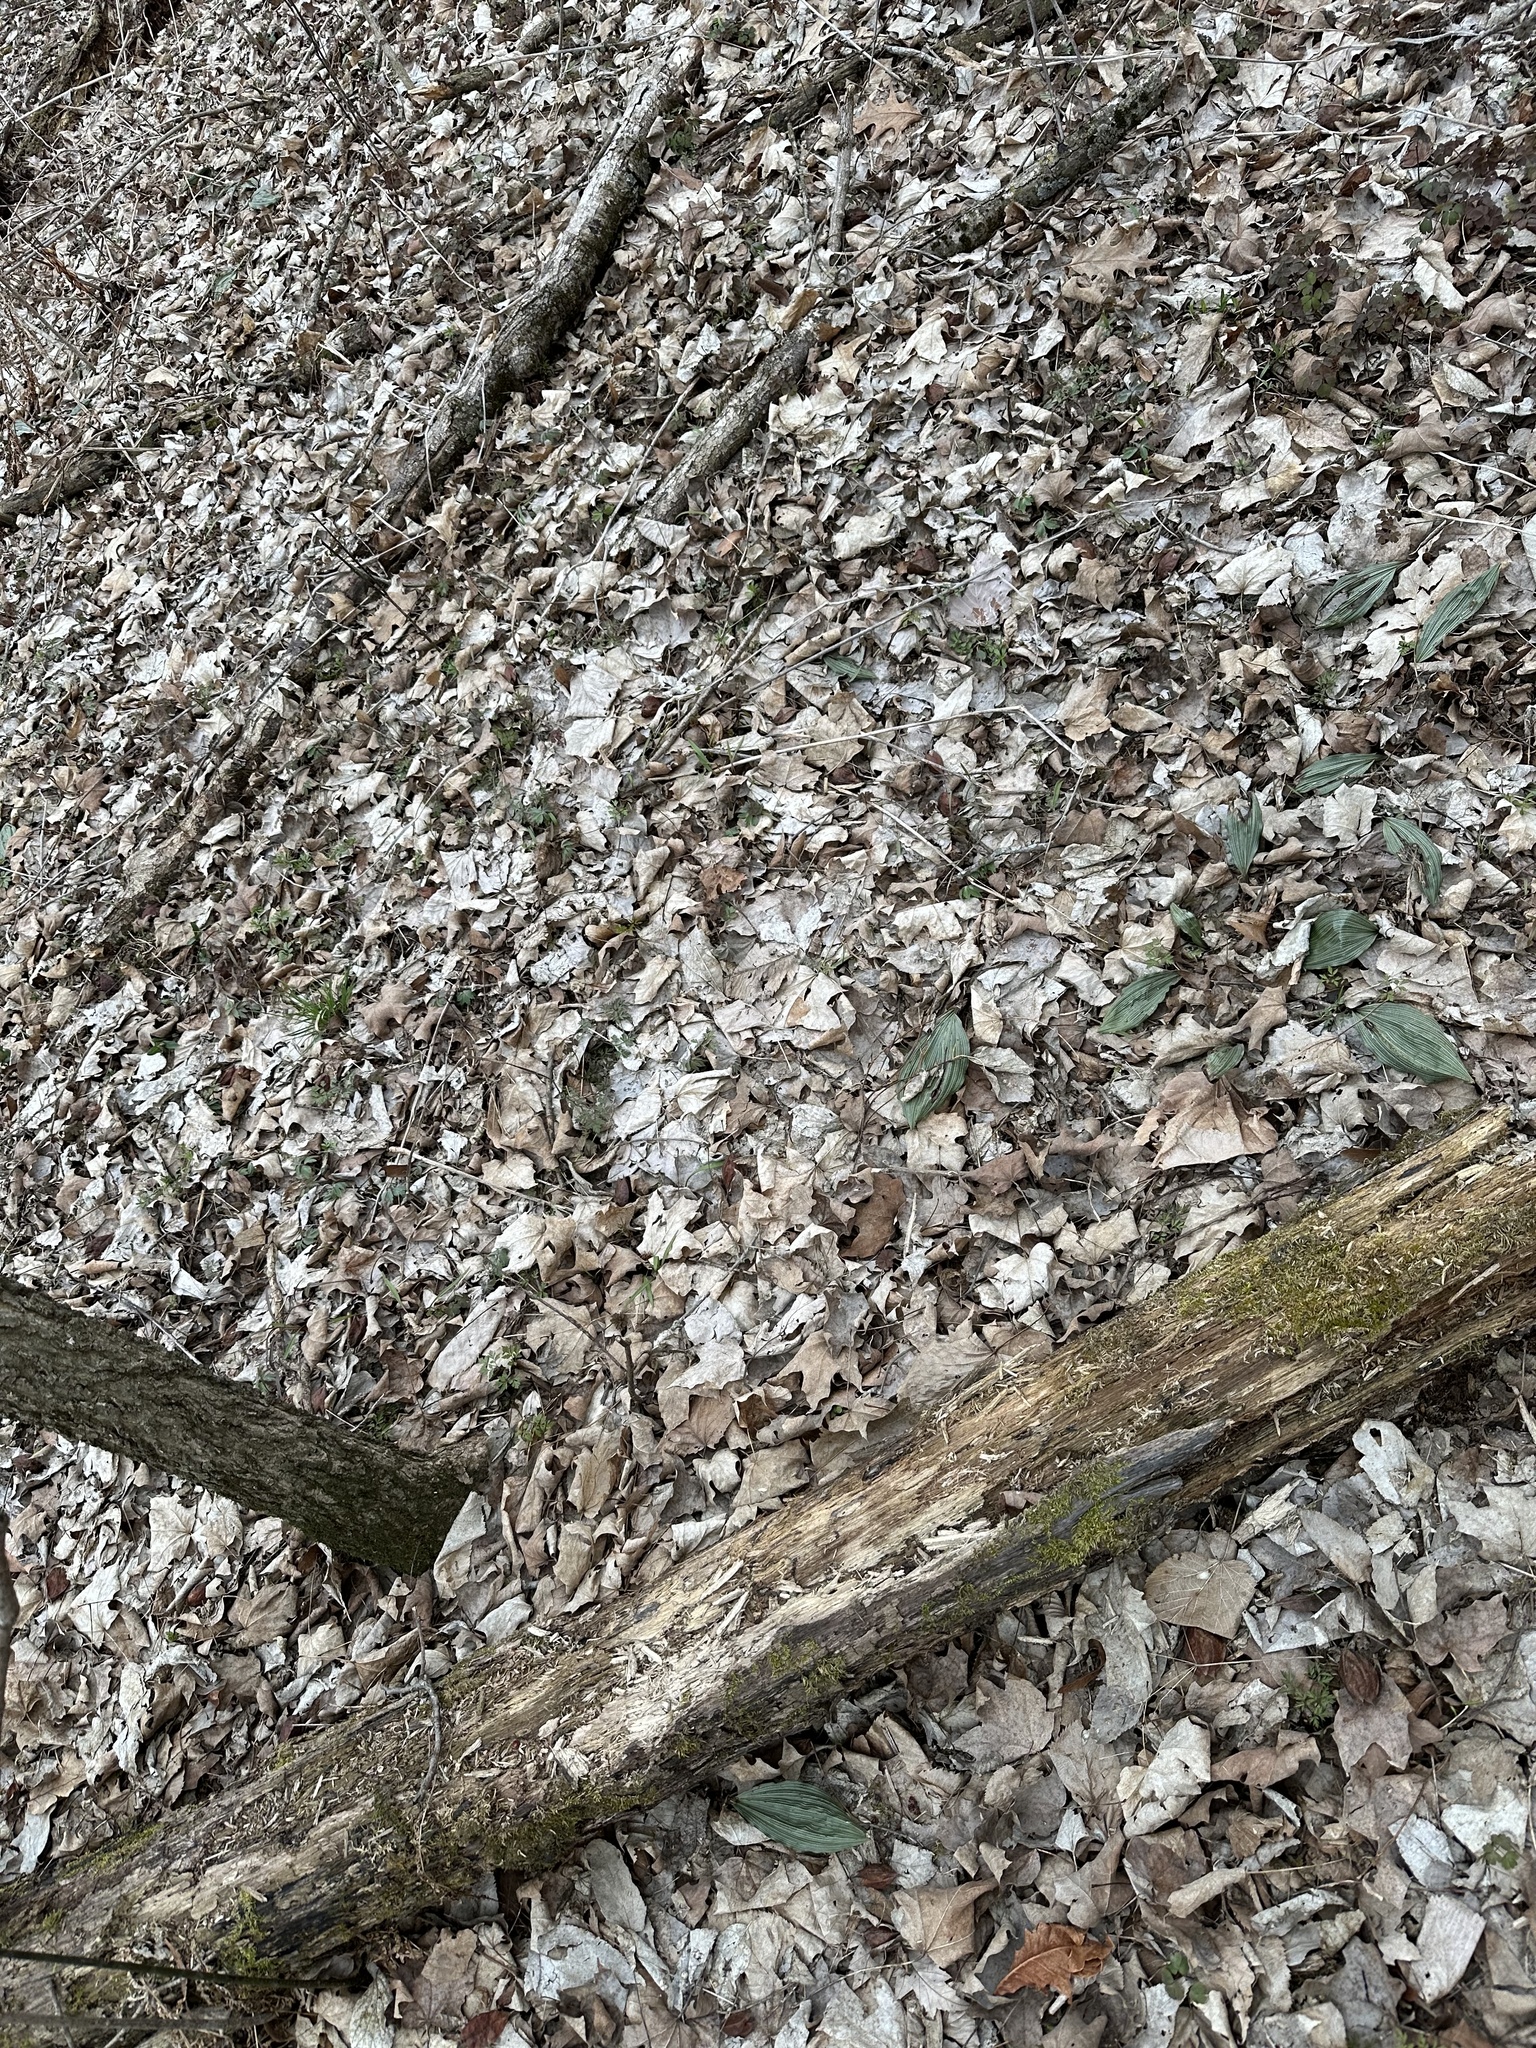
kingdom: Plantae
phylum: Tracheophyta
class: Liliopsida
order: Asparagales
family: Orchidaceae
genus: Aplectrum
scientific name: Aplectrum hyemale
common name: Adam-and-eve
